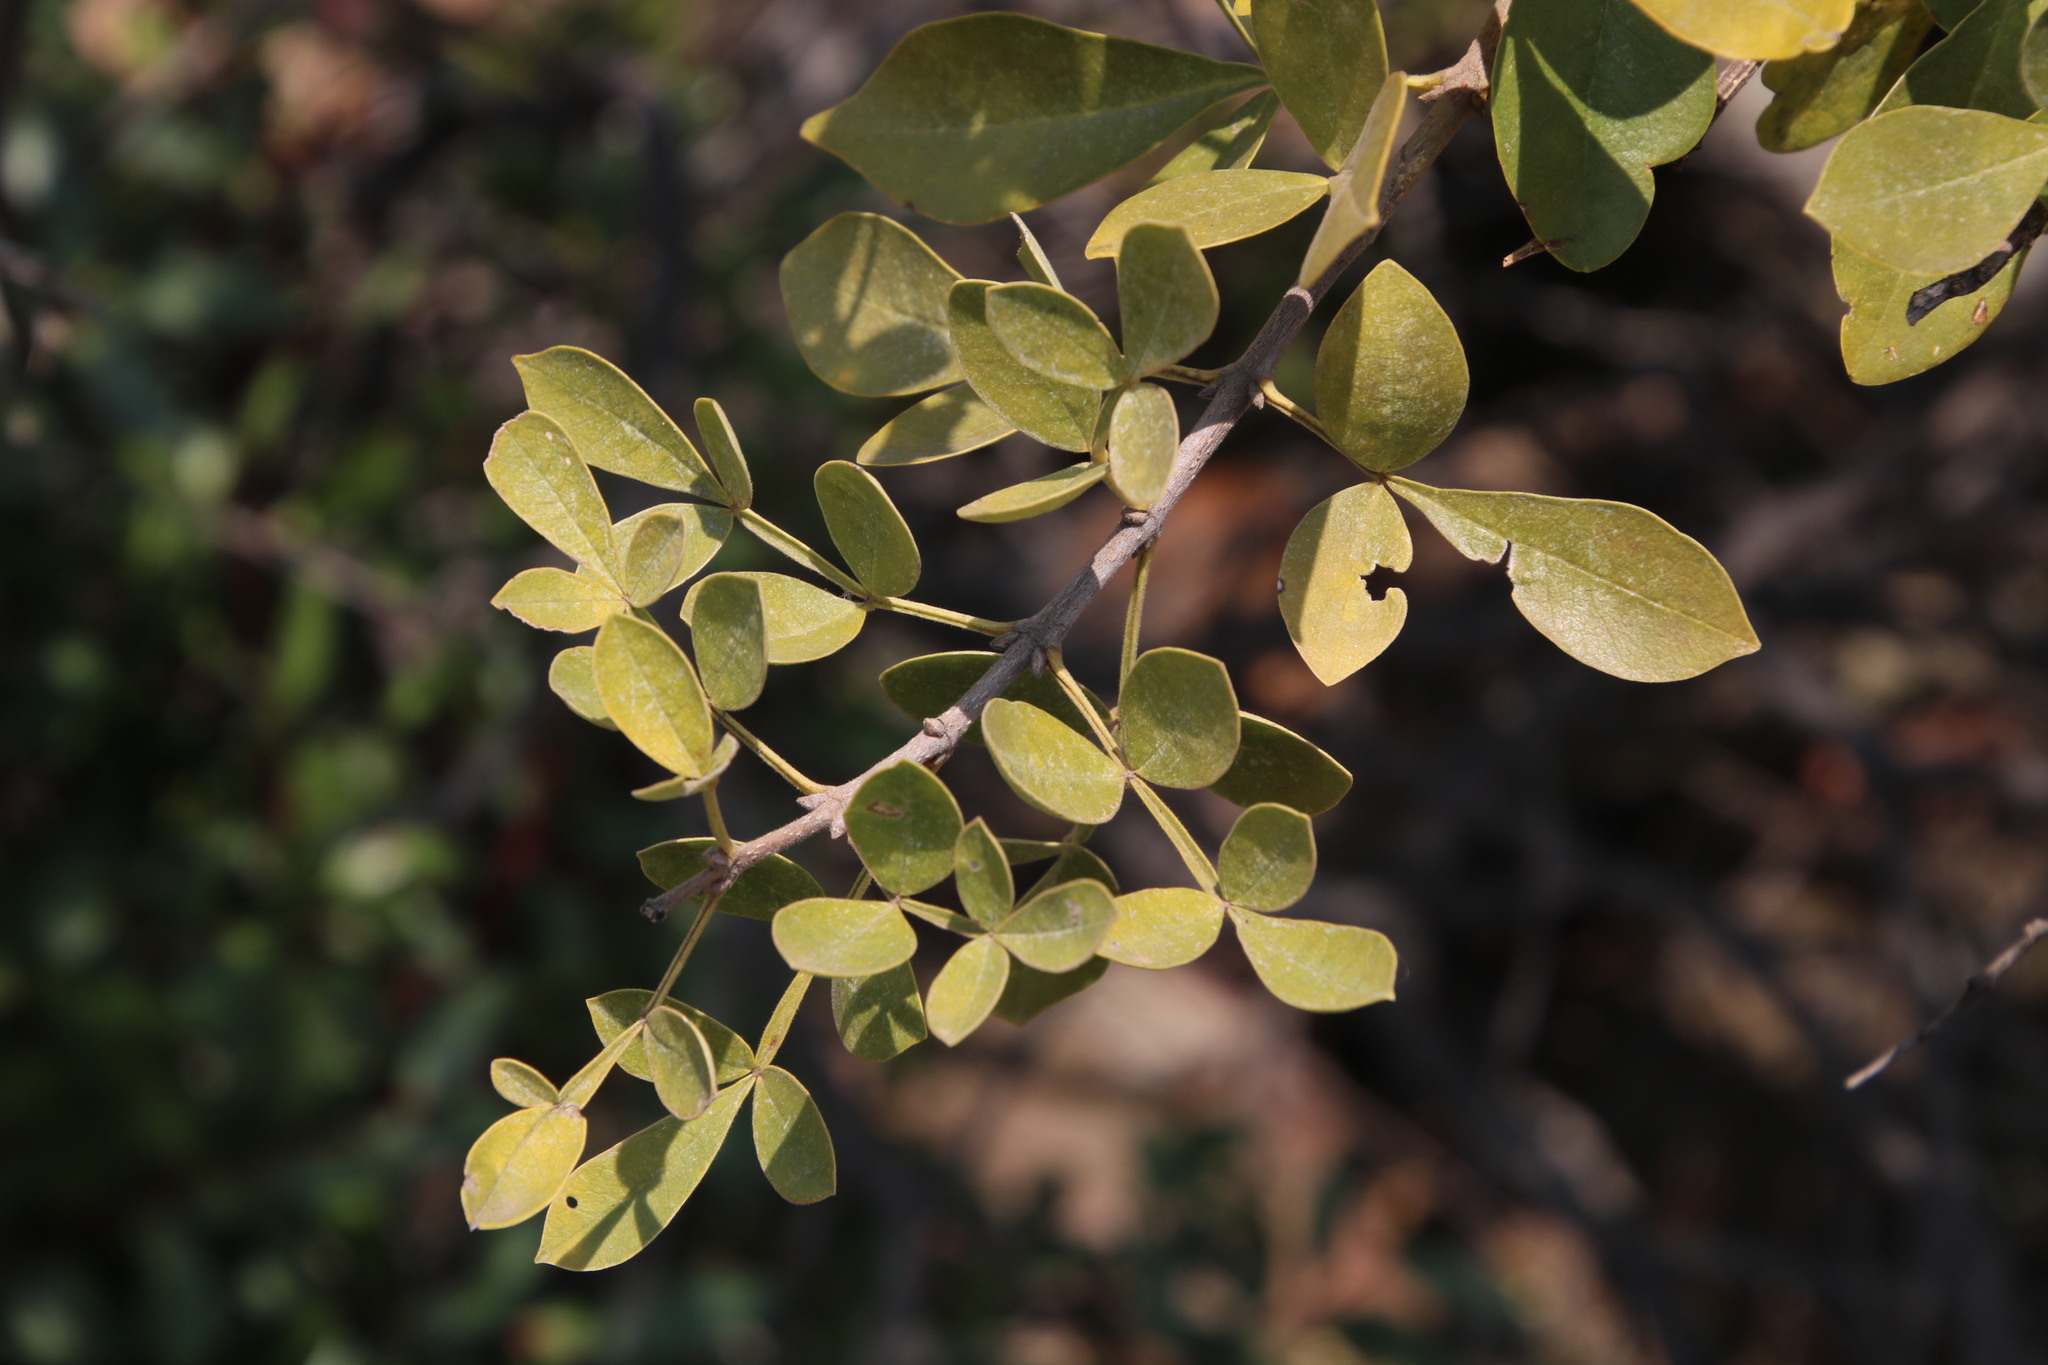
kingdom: Plantae
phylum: Tracheophyta
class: Magnoliopsida
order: Lamiales
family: Oleaceae
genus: Schrebera
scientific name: Schrebera alata
